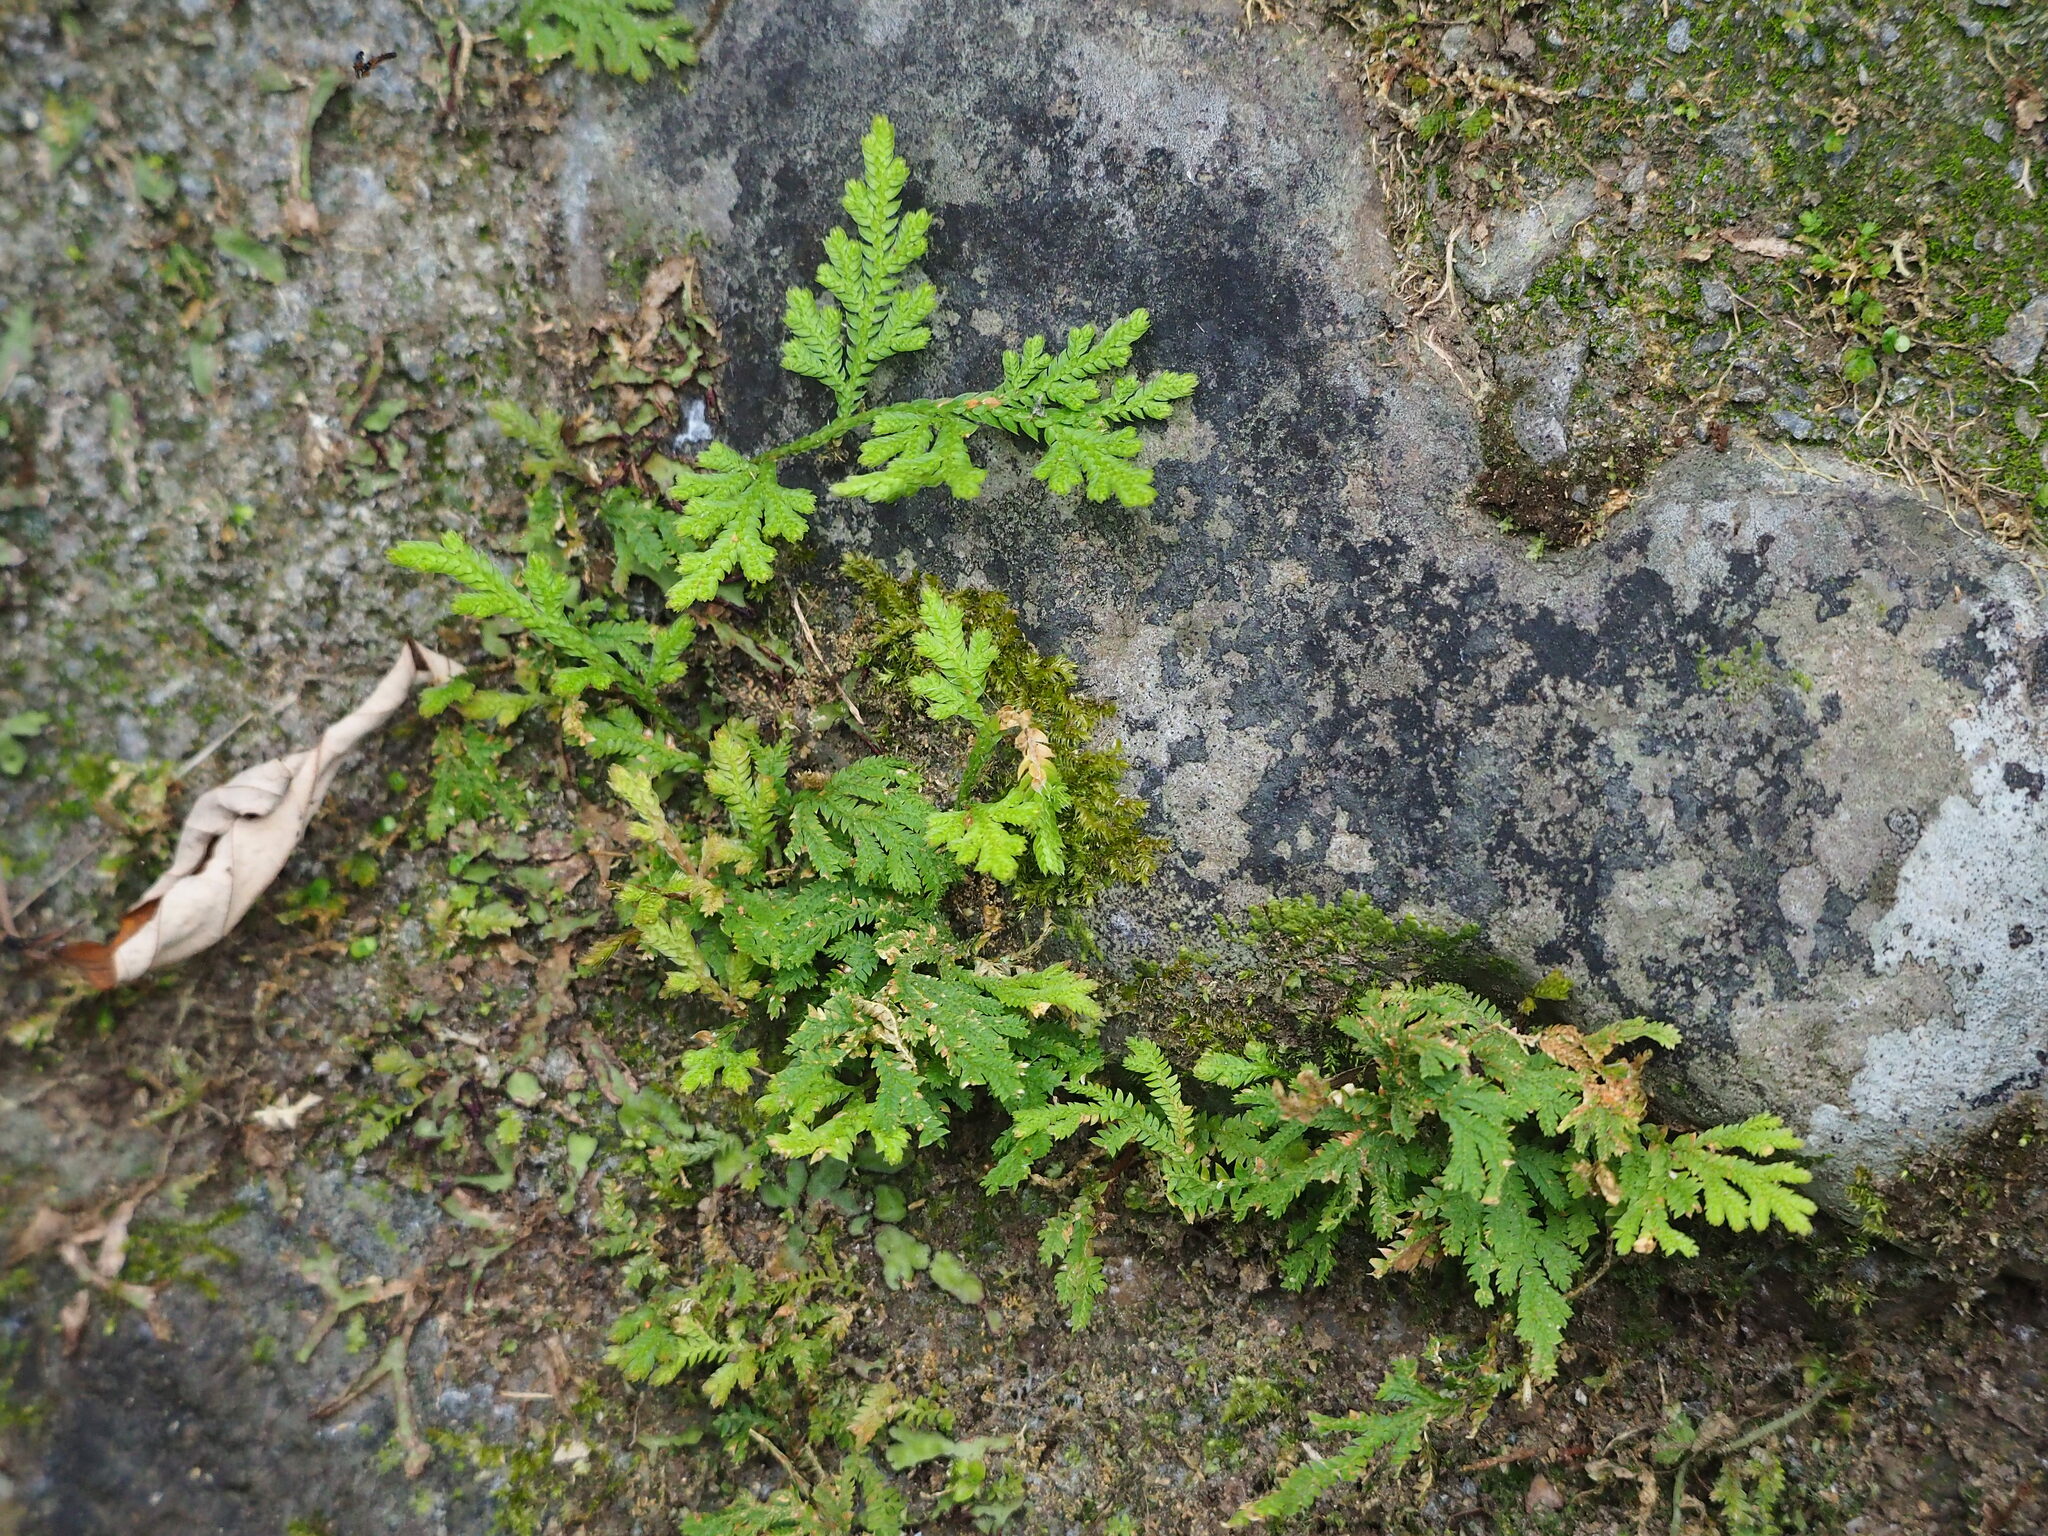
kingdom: Plantae
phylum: Tracheophyta
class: Lycopodiopsida
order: Selaginellales
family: Selaginellaceae
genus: Selaginella
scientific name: Selaginella moellendorffii
